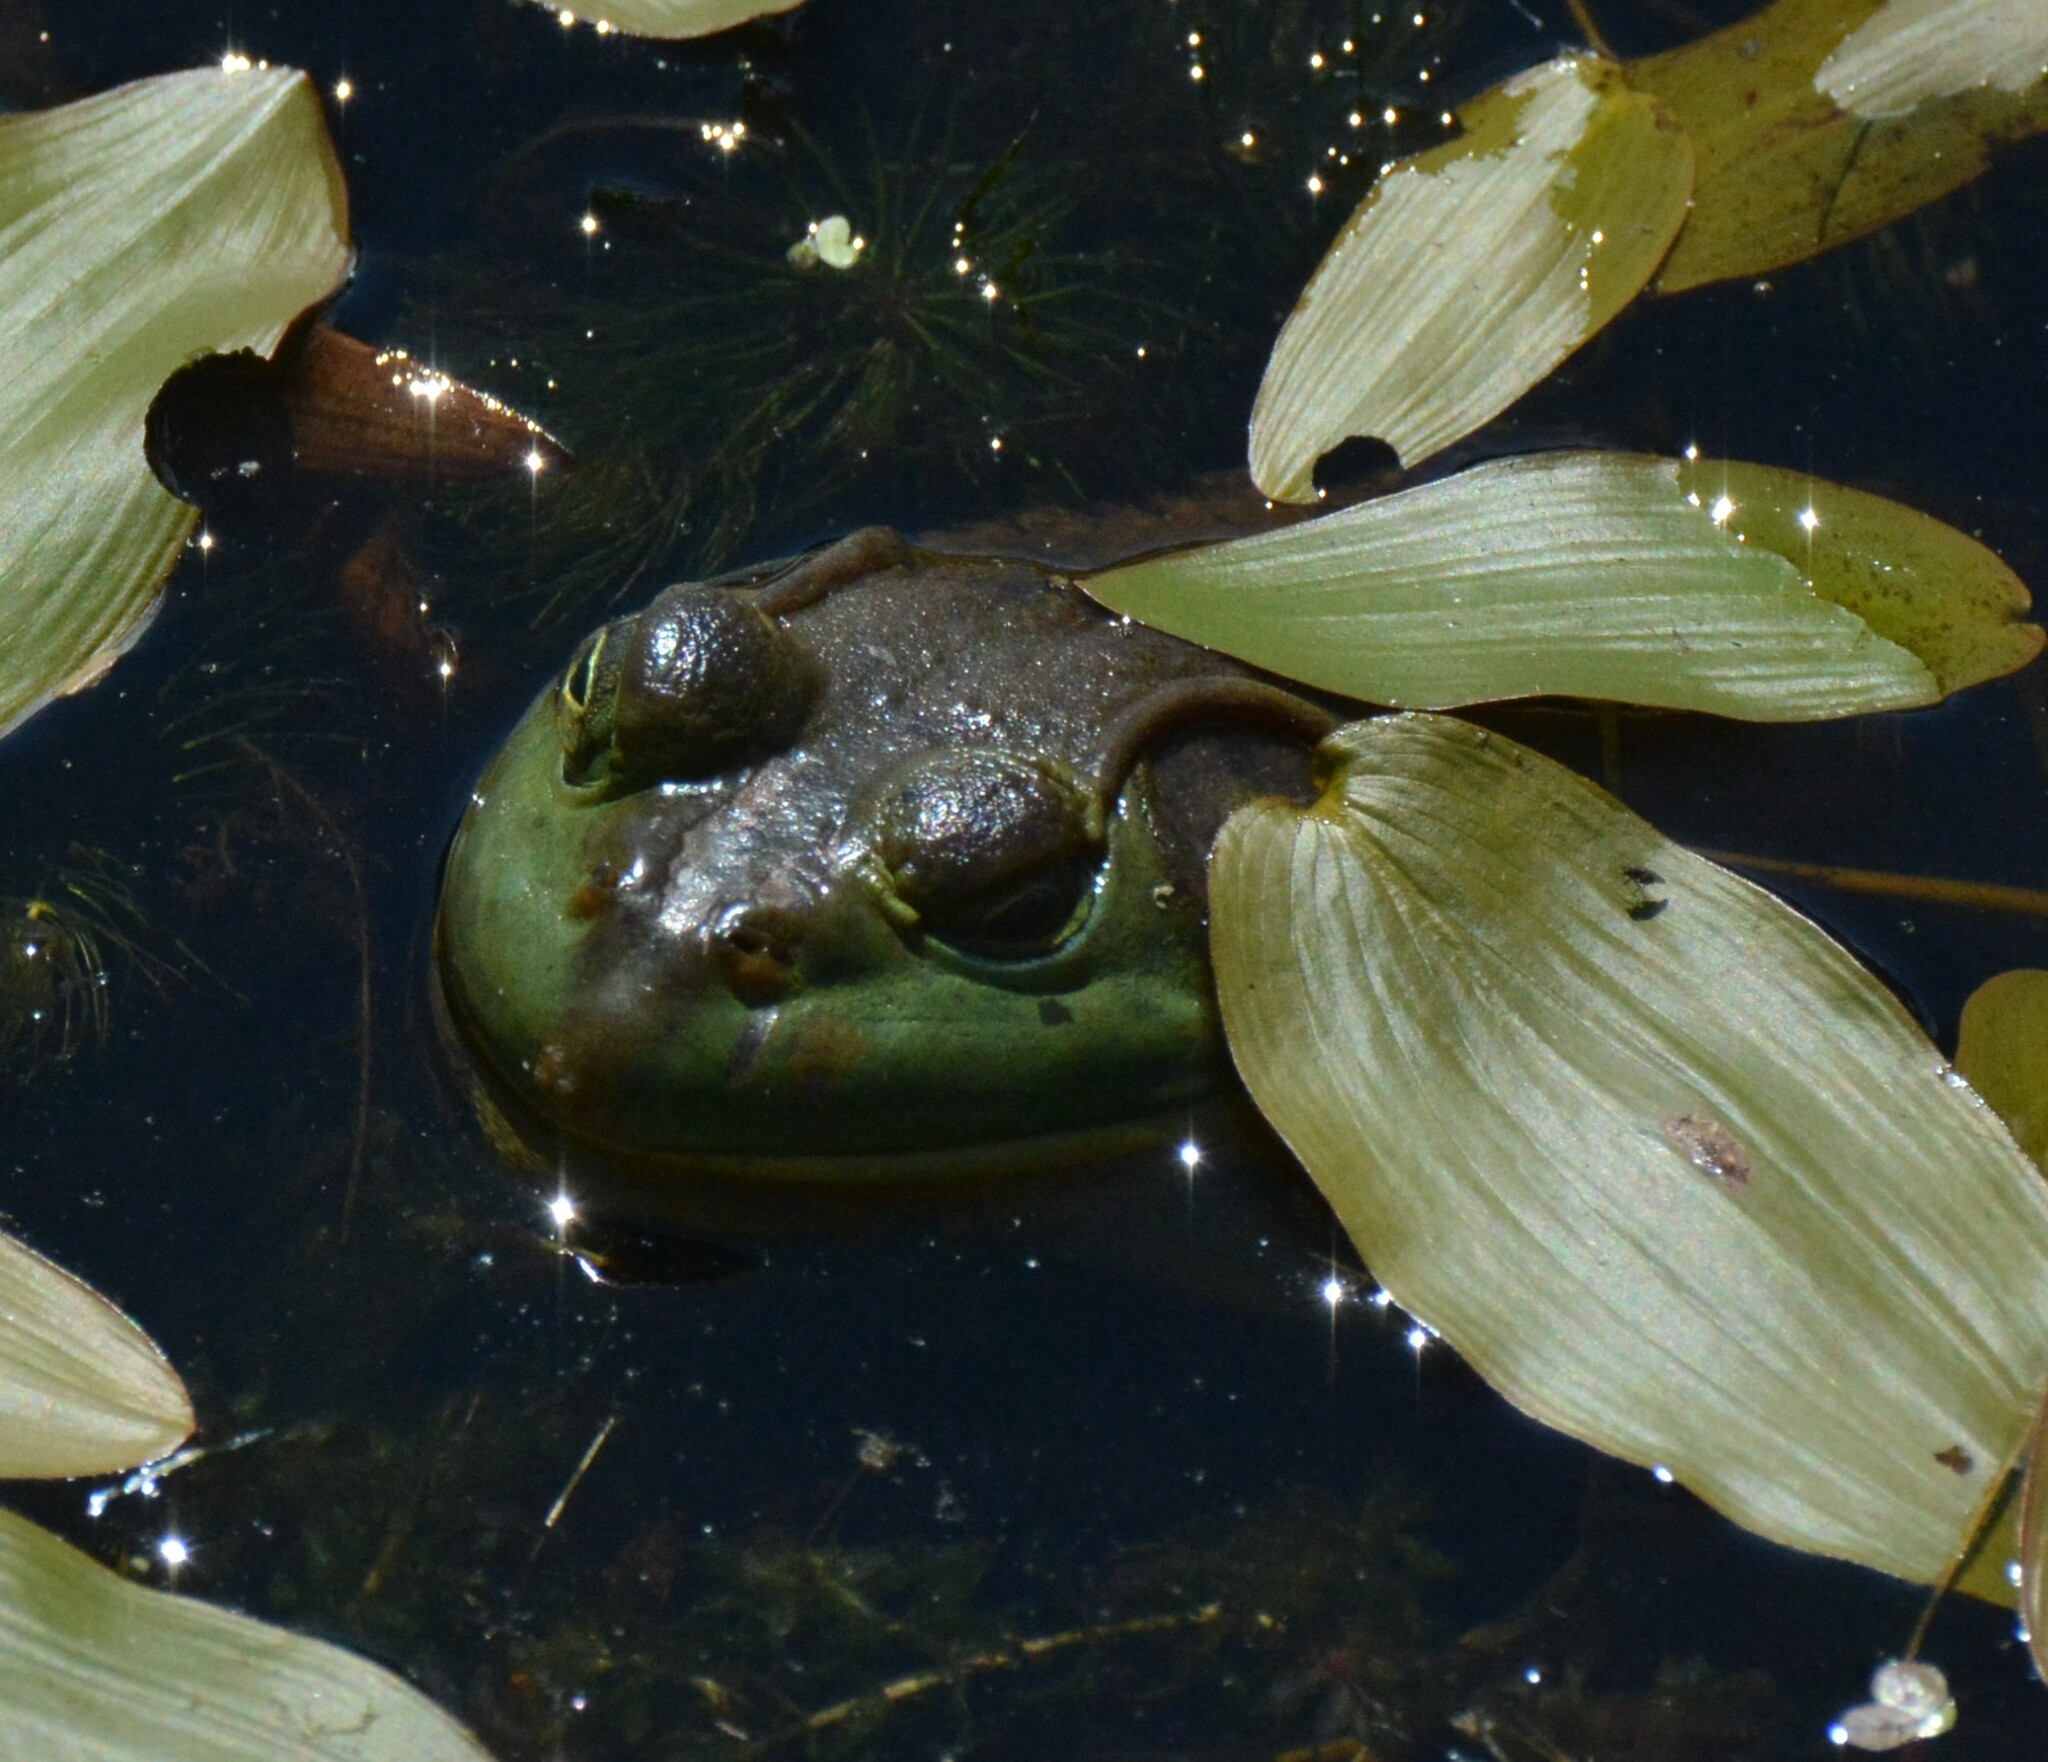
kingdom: Animalia
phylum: Chordata
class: Amphibia
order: Anura
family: Ranidae
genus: Lithobates
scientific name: Lithobates catesbeianus
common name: American bullfrog
